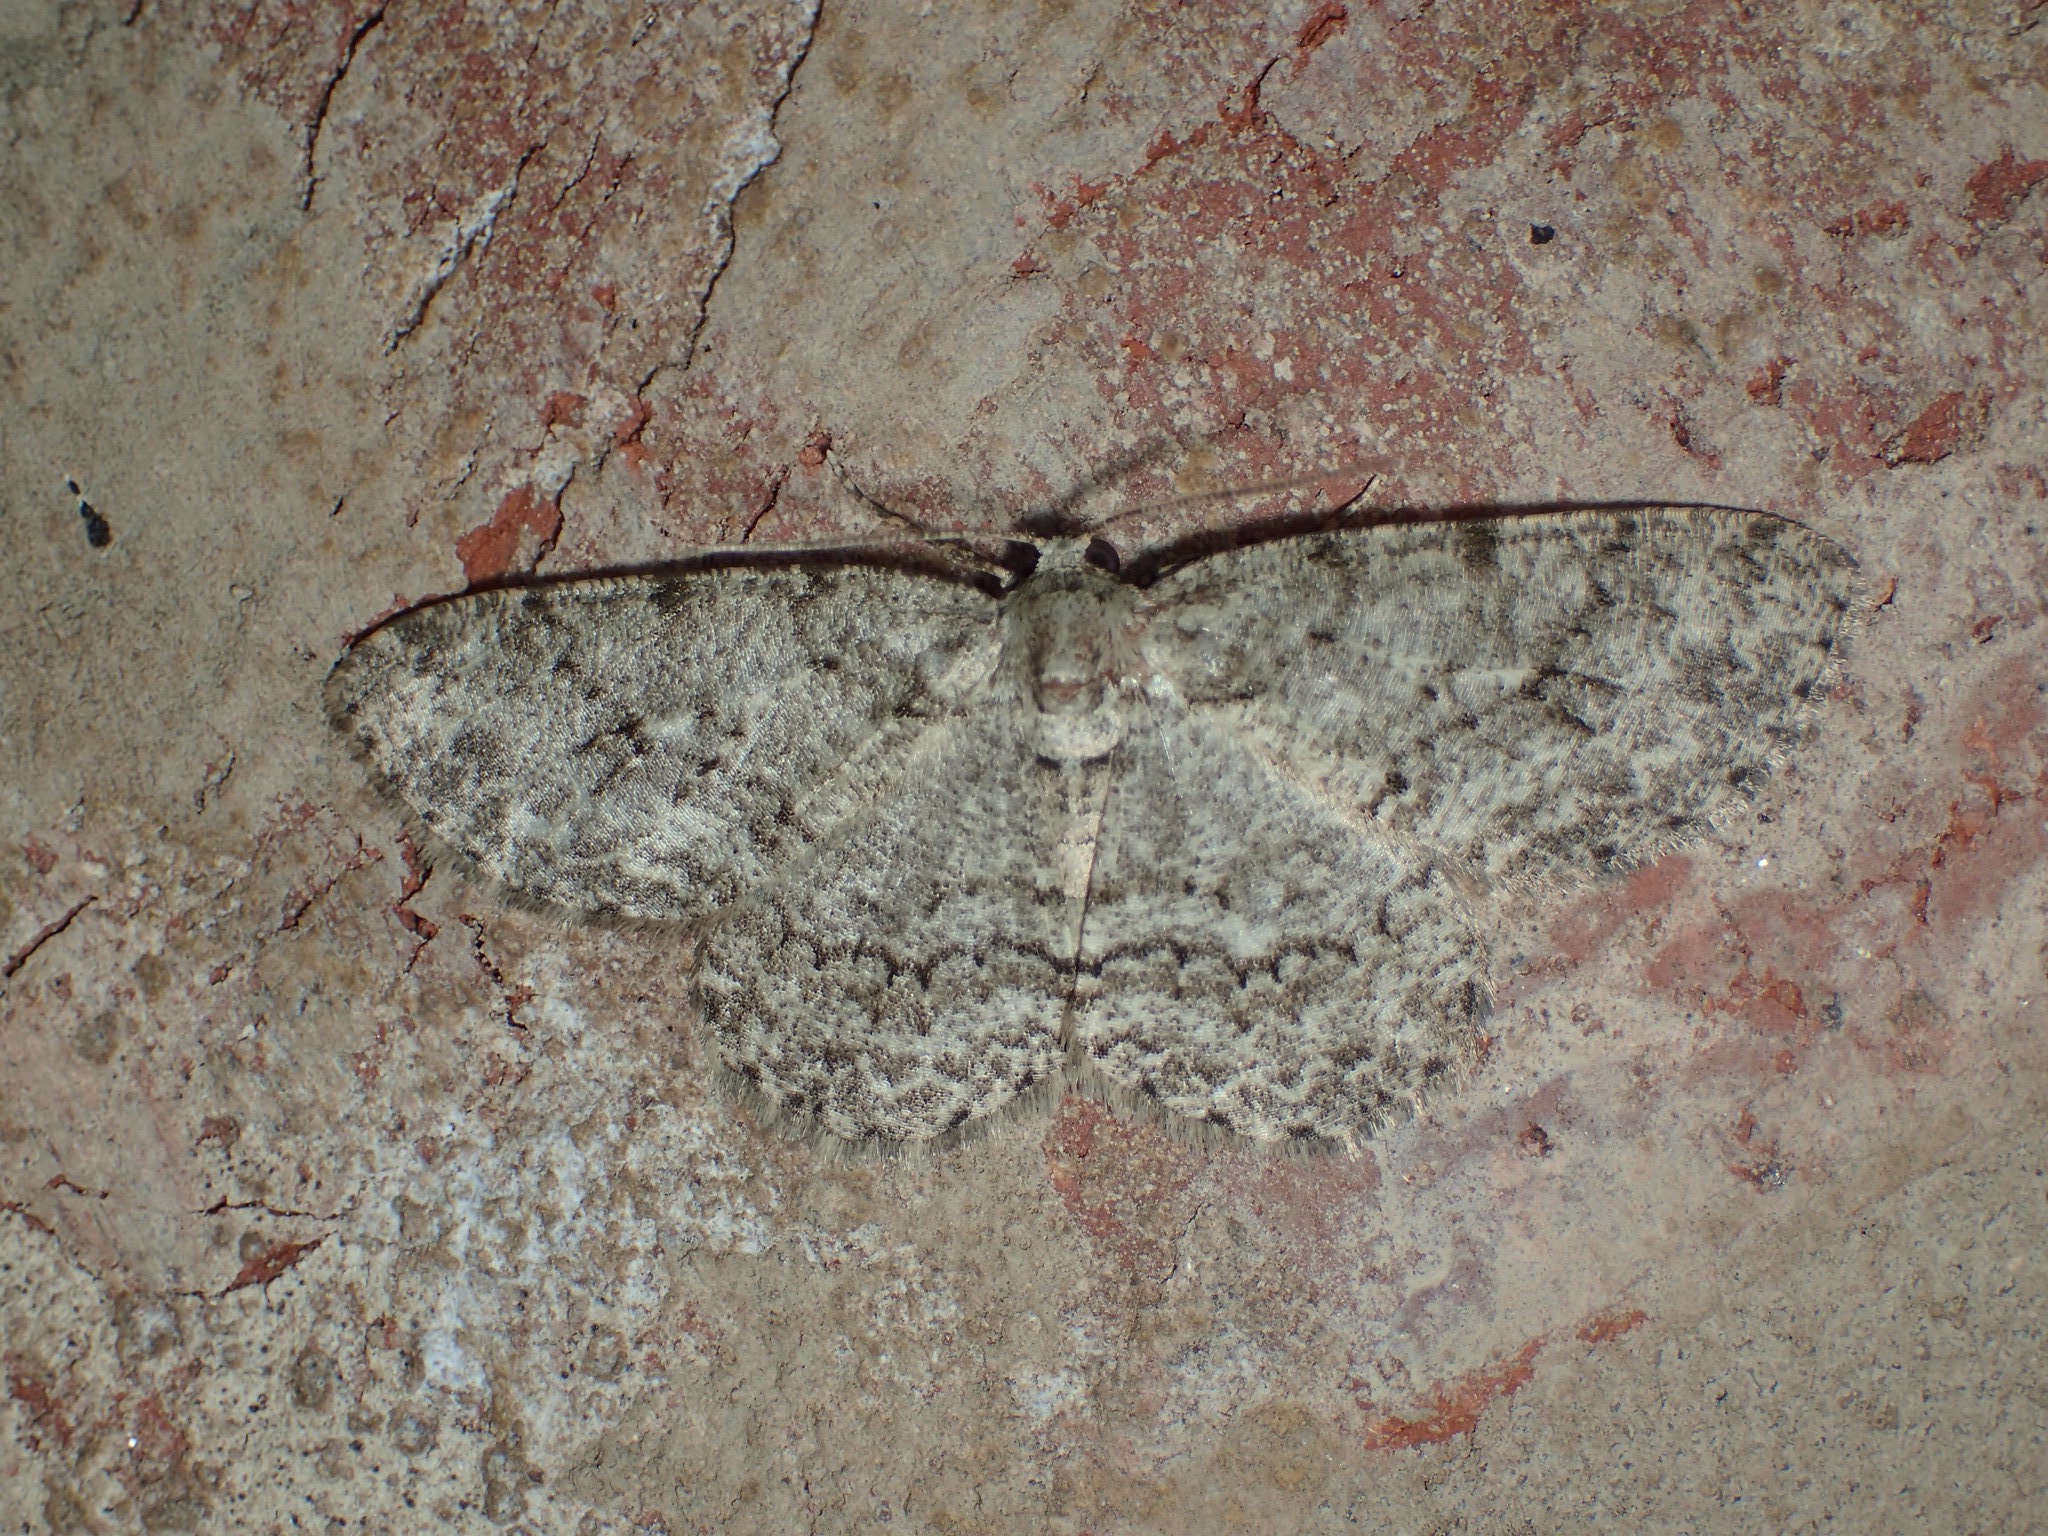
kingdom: Animalia
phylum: Arthropoda
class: Insecta
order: Lepidoptera
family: Geometridae
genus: Ectropis
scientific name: Ectropis crepuscularia
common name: Engrailed
